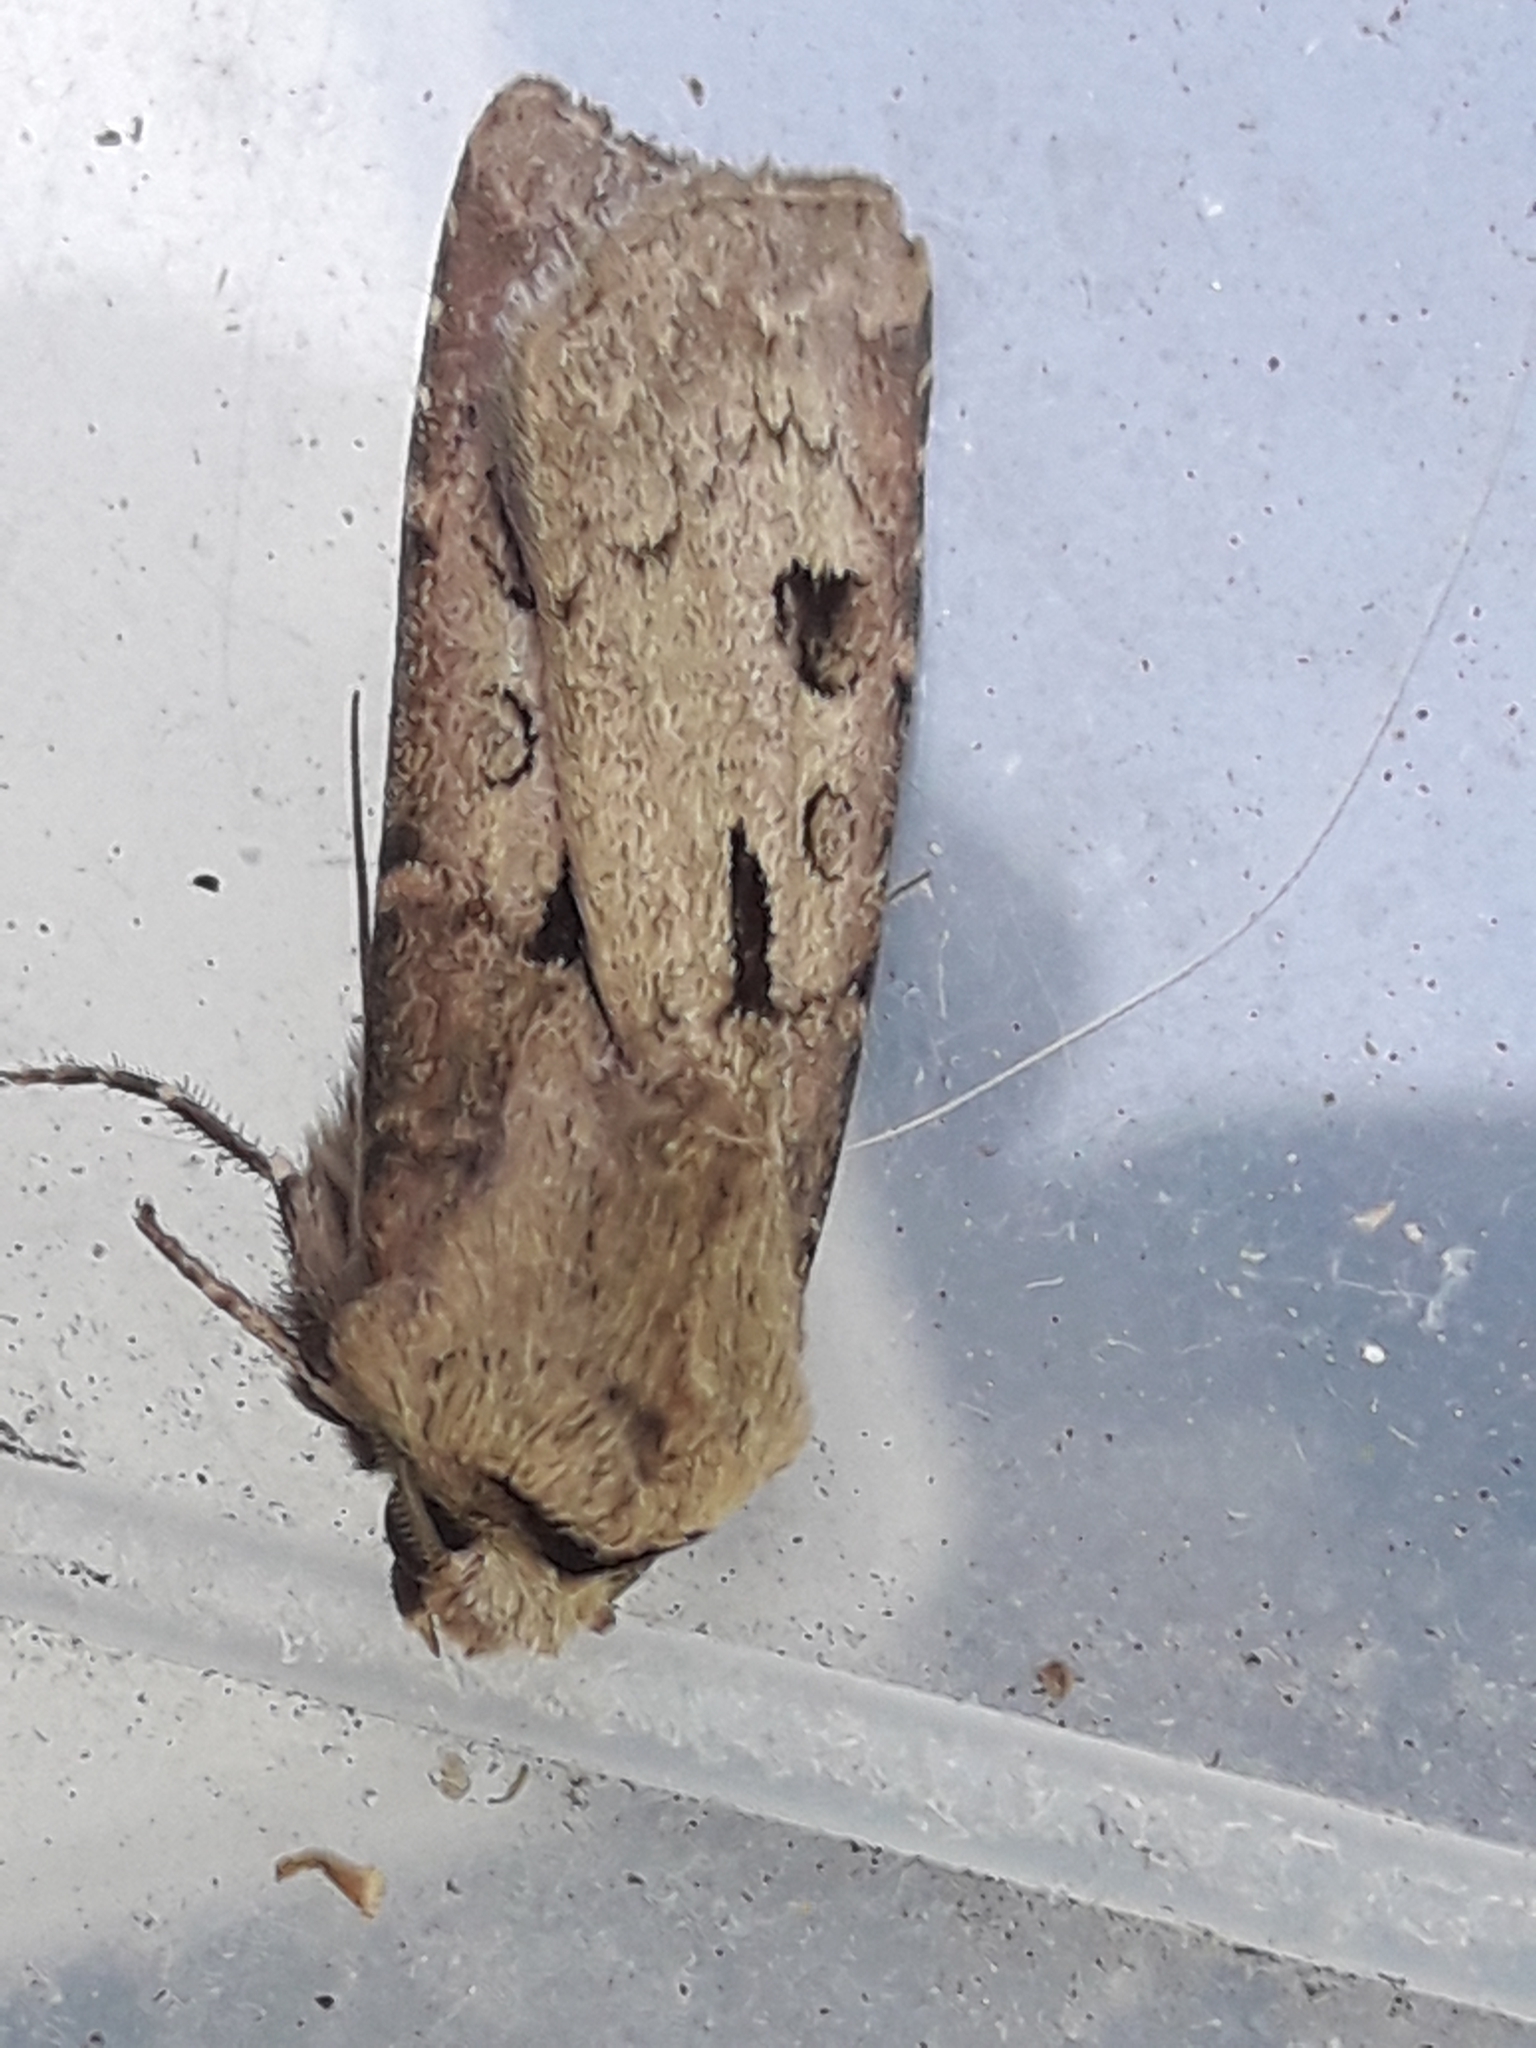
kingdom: Animalia
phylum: Arthropoda
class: Insecta
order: Lepidoptera
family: Noctuidae
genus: Agrotis
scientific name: Agrotis exclamationis
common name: Heart and dart
